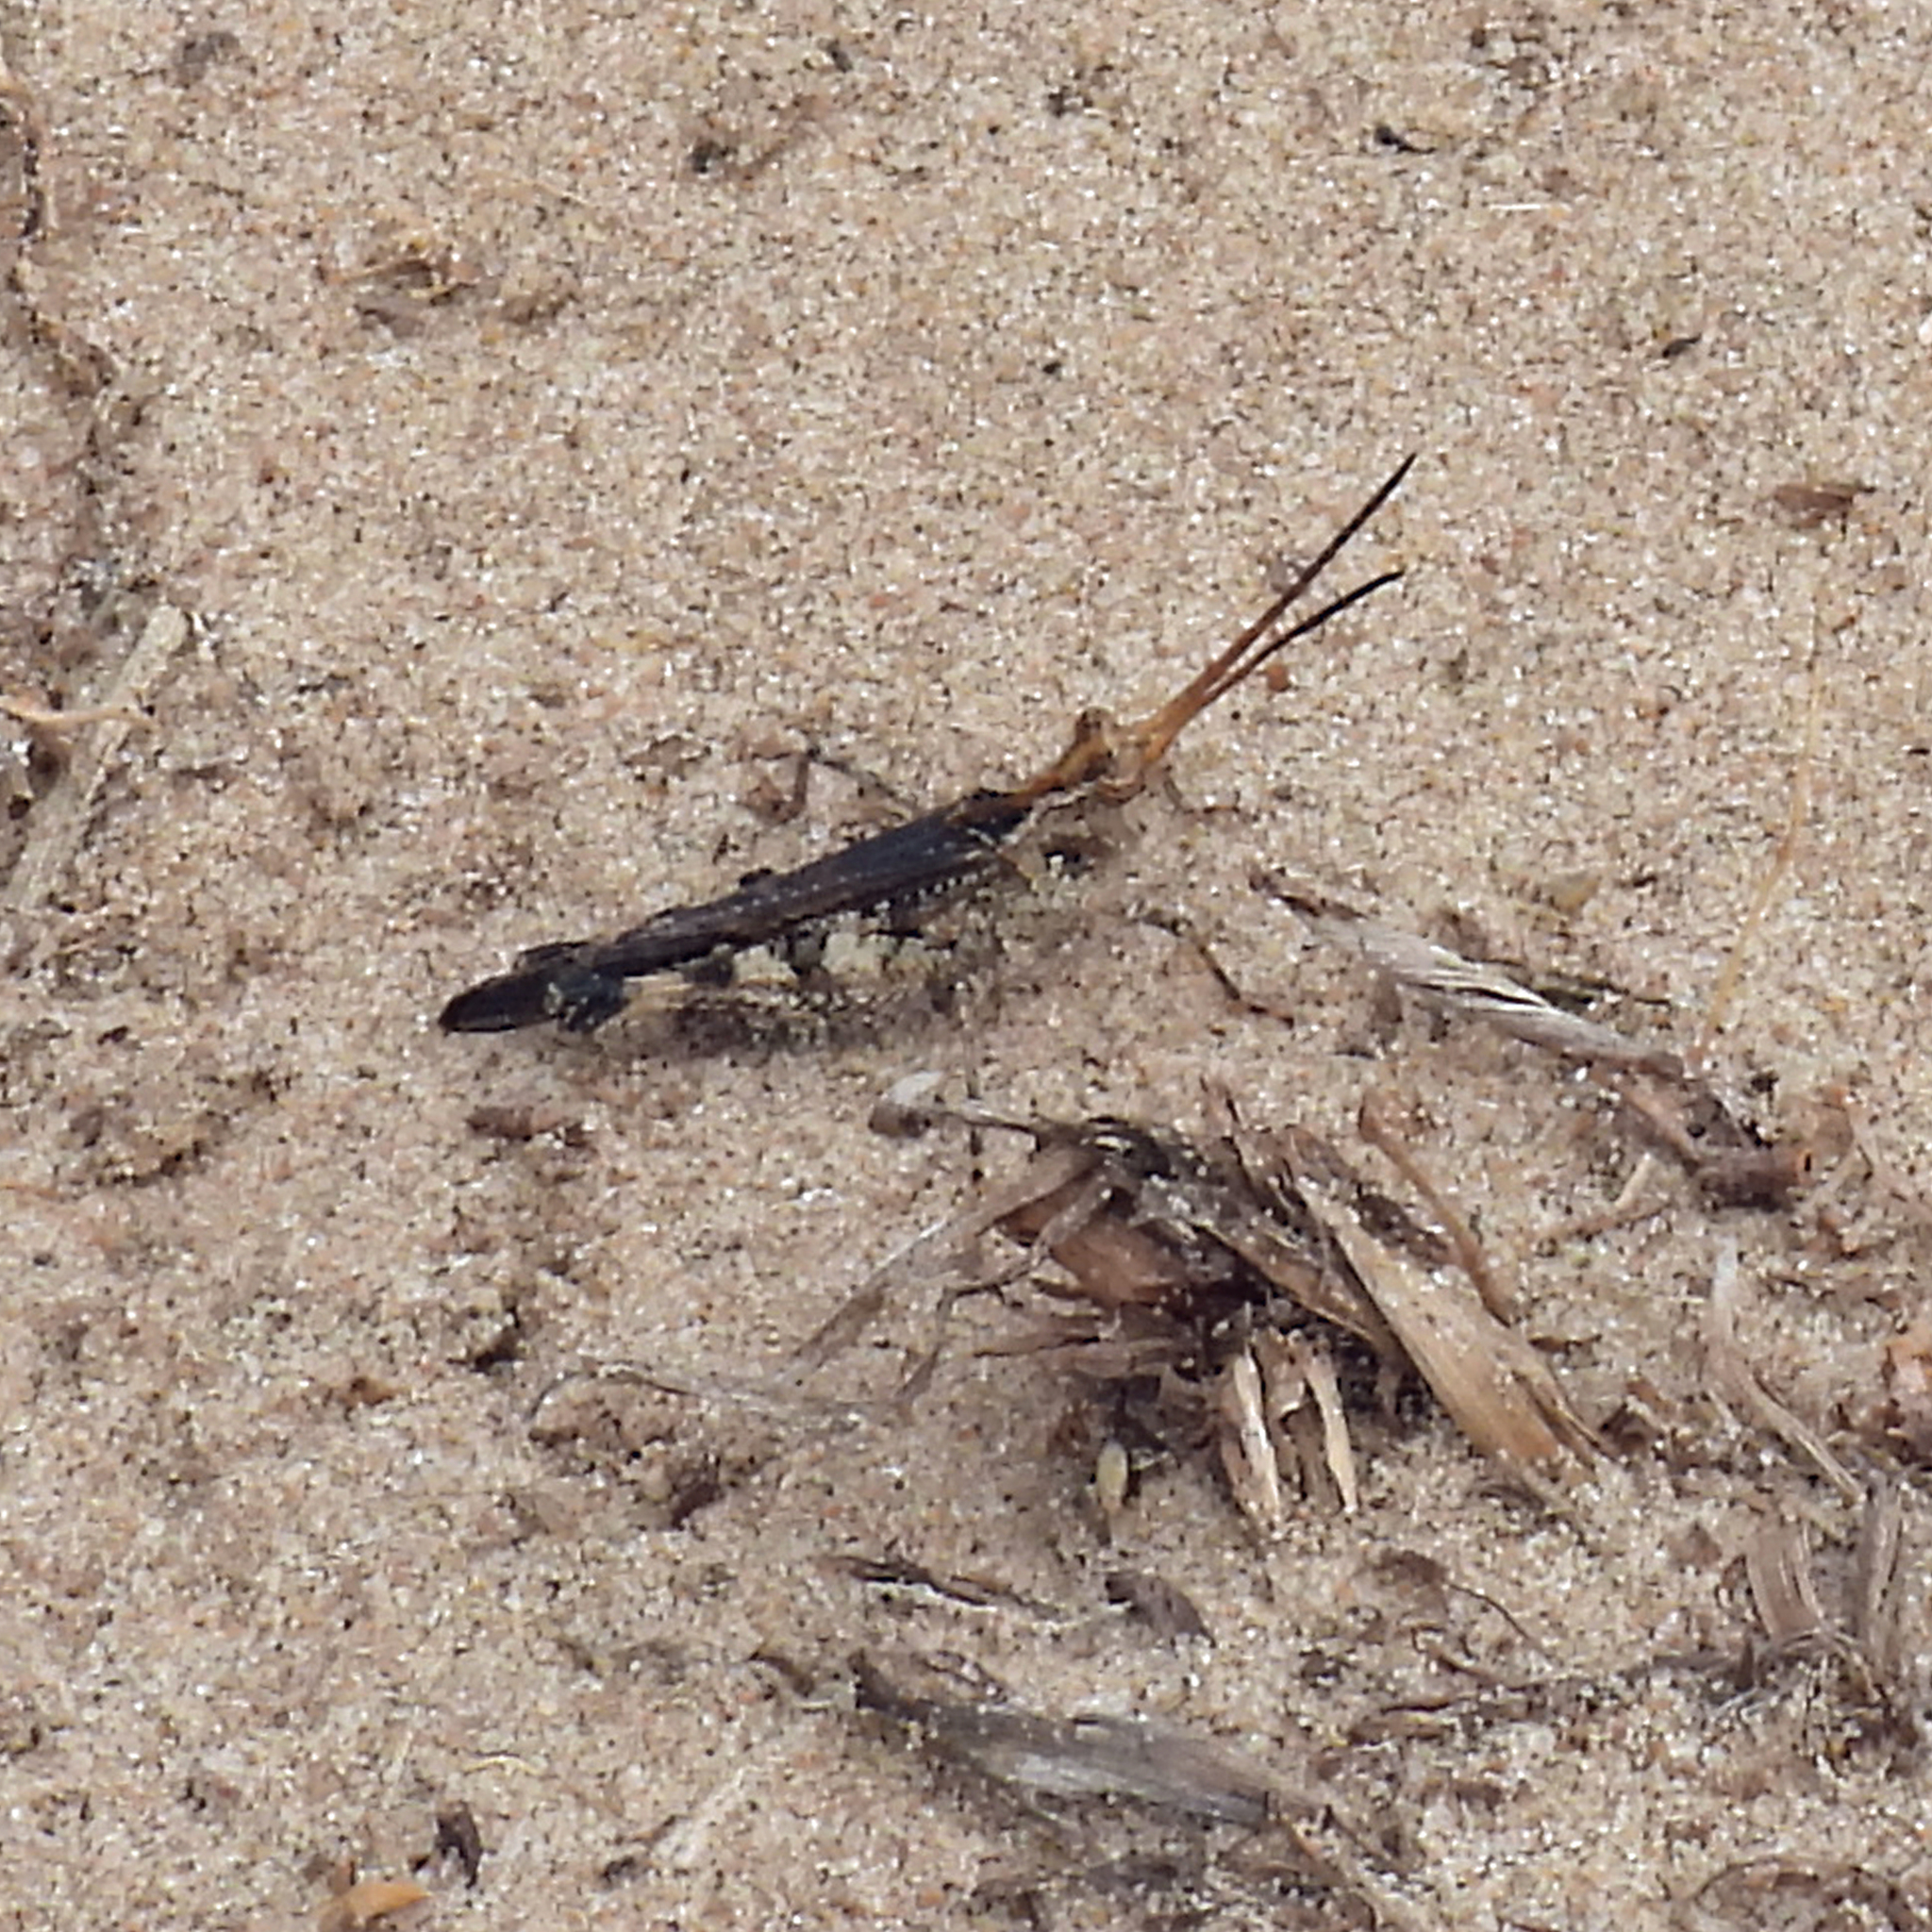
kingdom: Animalia
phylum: Arthropoda
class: Insecta
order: Orthoptera
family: Acrididae
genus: Psinidia
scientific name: Psinidia amplicornus
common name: Caudell's longhorn grasshopper
